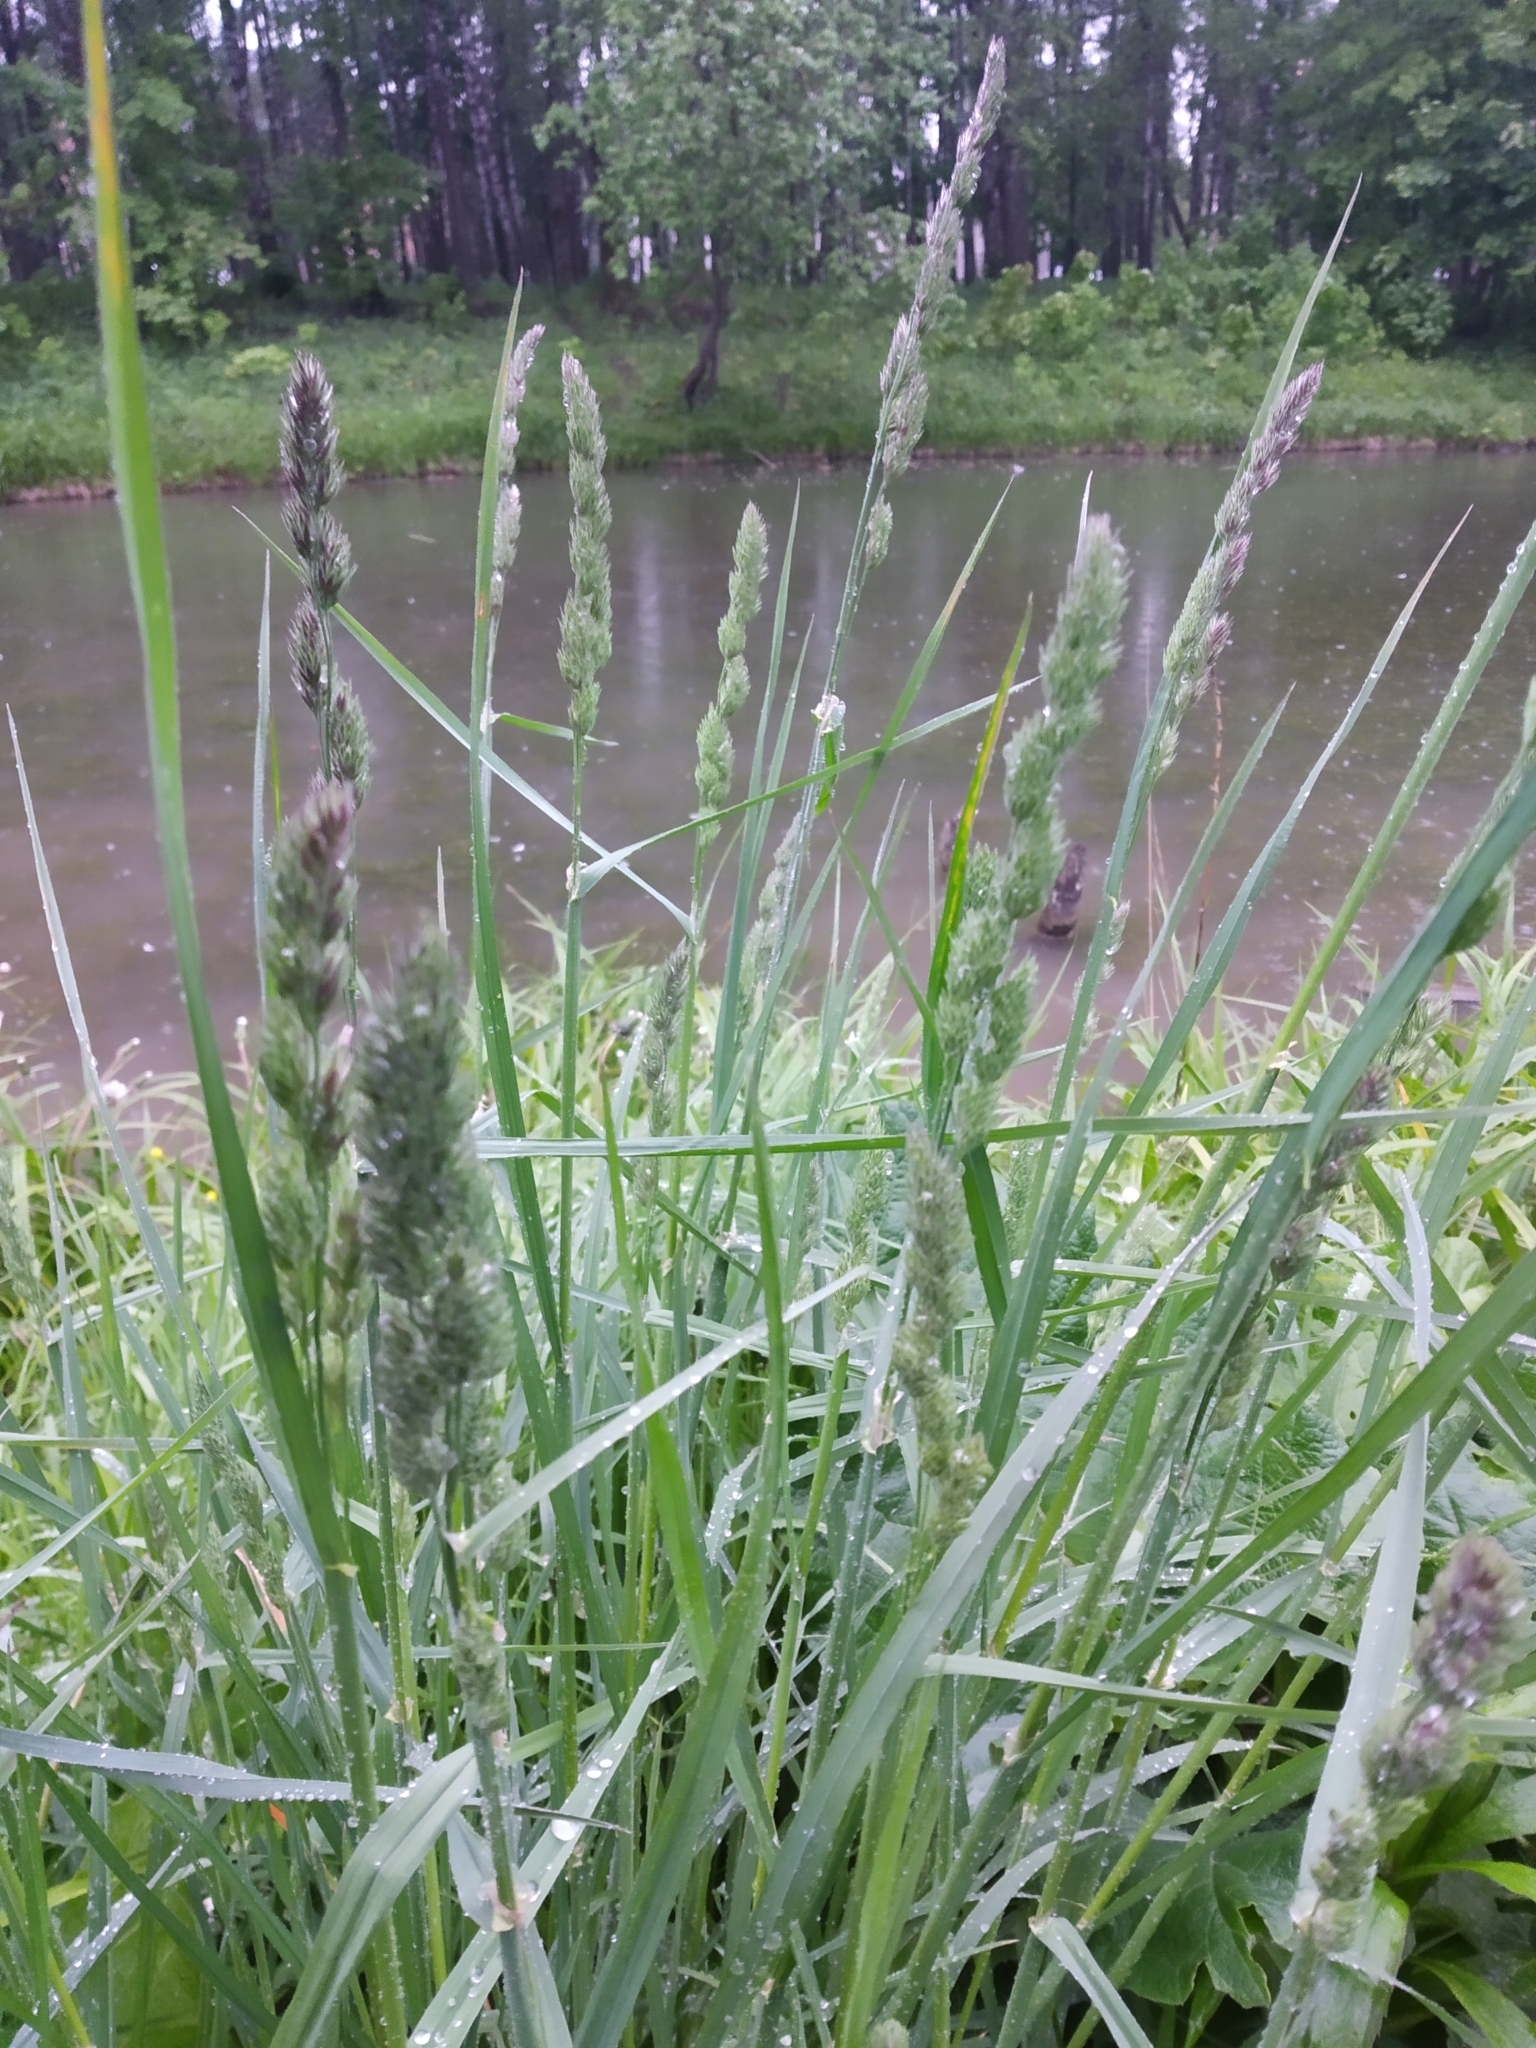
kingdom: Plantae
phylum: Tracheophyta
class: Liliopsida
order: Poales
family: Poaceae
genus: Dactylis
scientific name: Dactylis glomerata
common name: Orchardgrass
